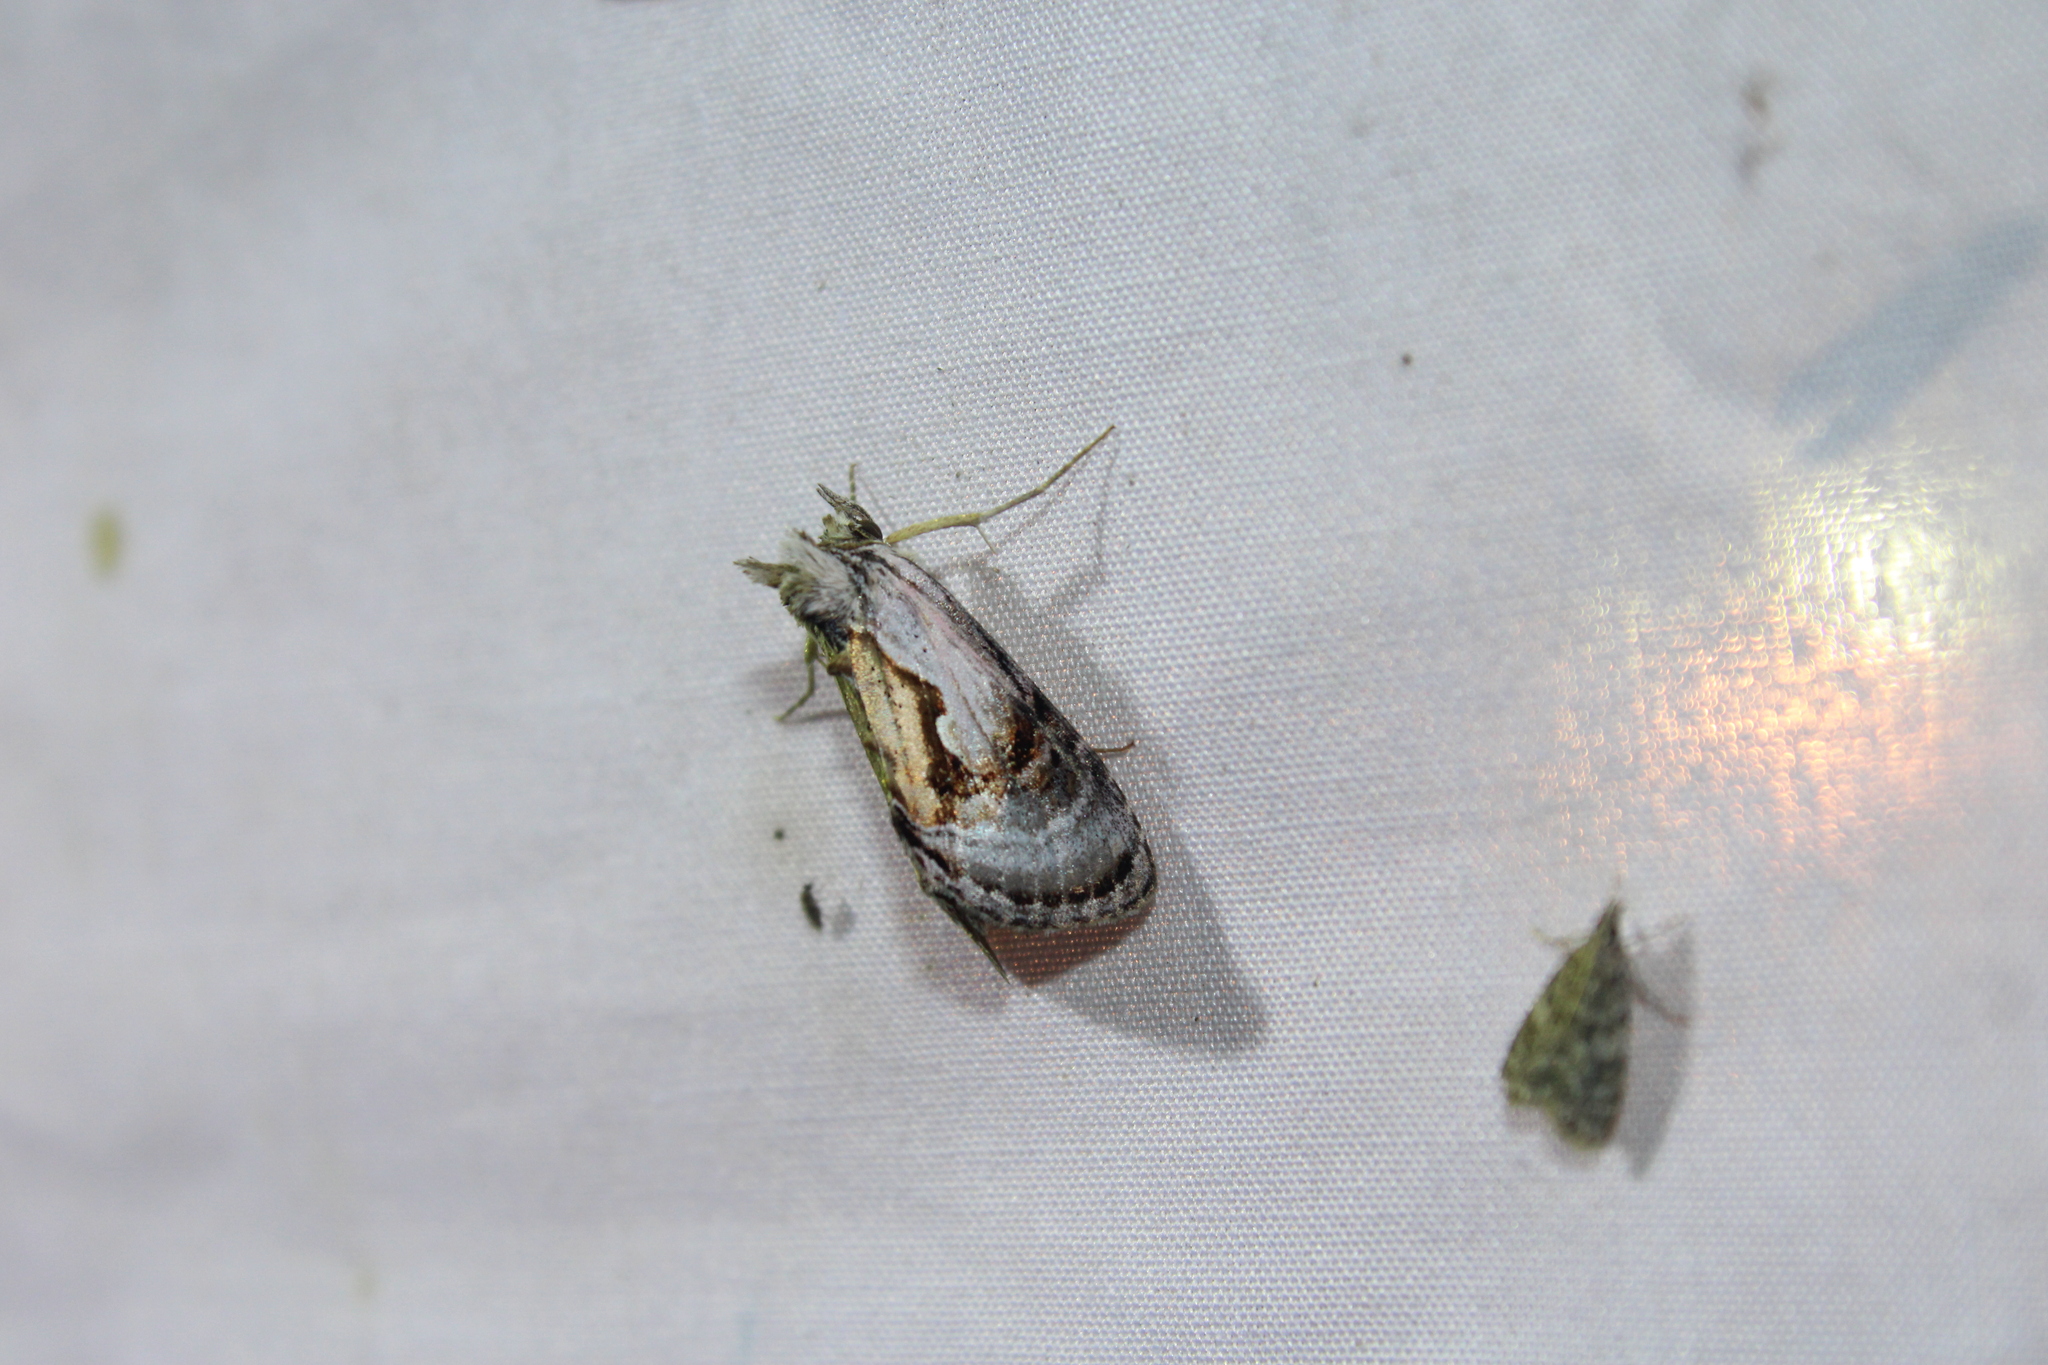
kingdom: Animalia
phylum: Arthropoda
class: Insecta
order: Lepidoptera
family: Noctuidae
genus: Chrysanympha
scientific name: Chrysanympha formosa
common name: Formosa looper moth
